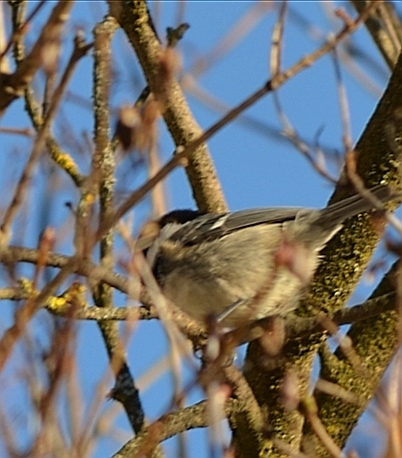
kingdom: Animalia
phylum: Chordata
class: Aves
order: Passeriformes
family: Paridae
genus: Periparus
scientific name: Periparus ater
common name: Coal tit
